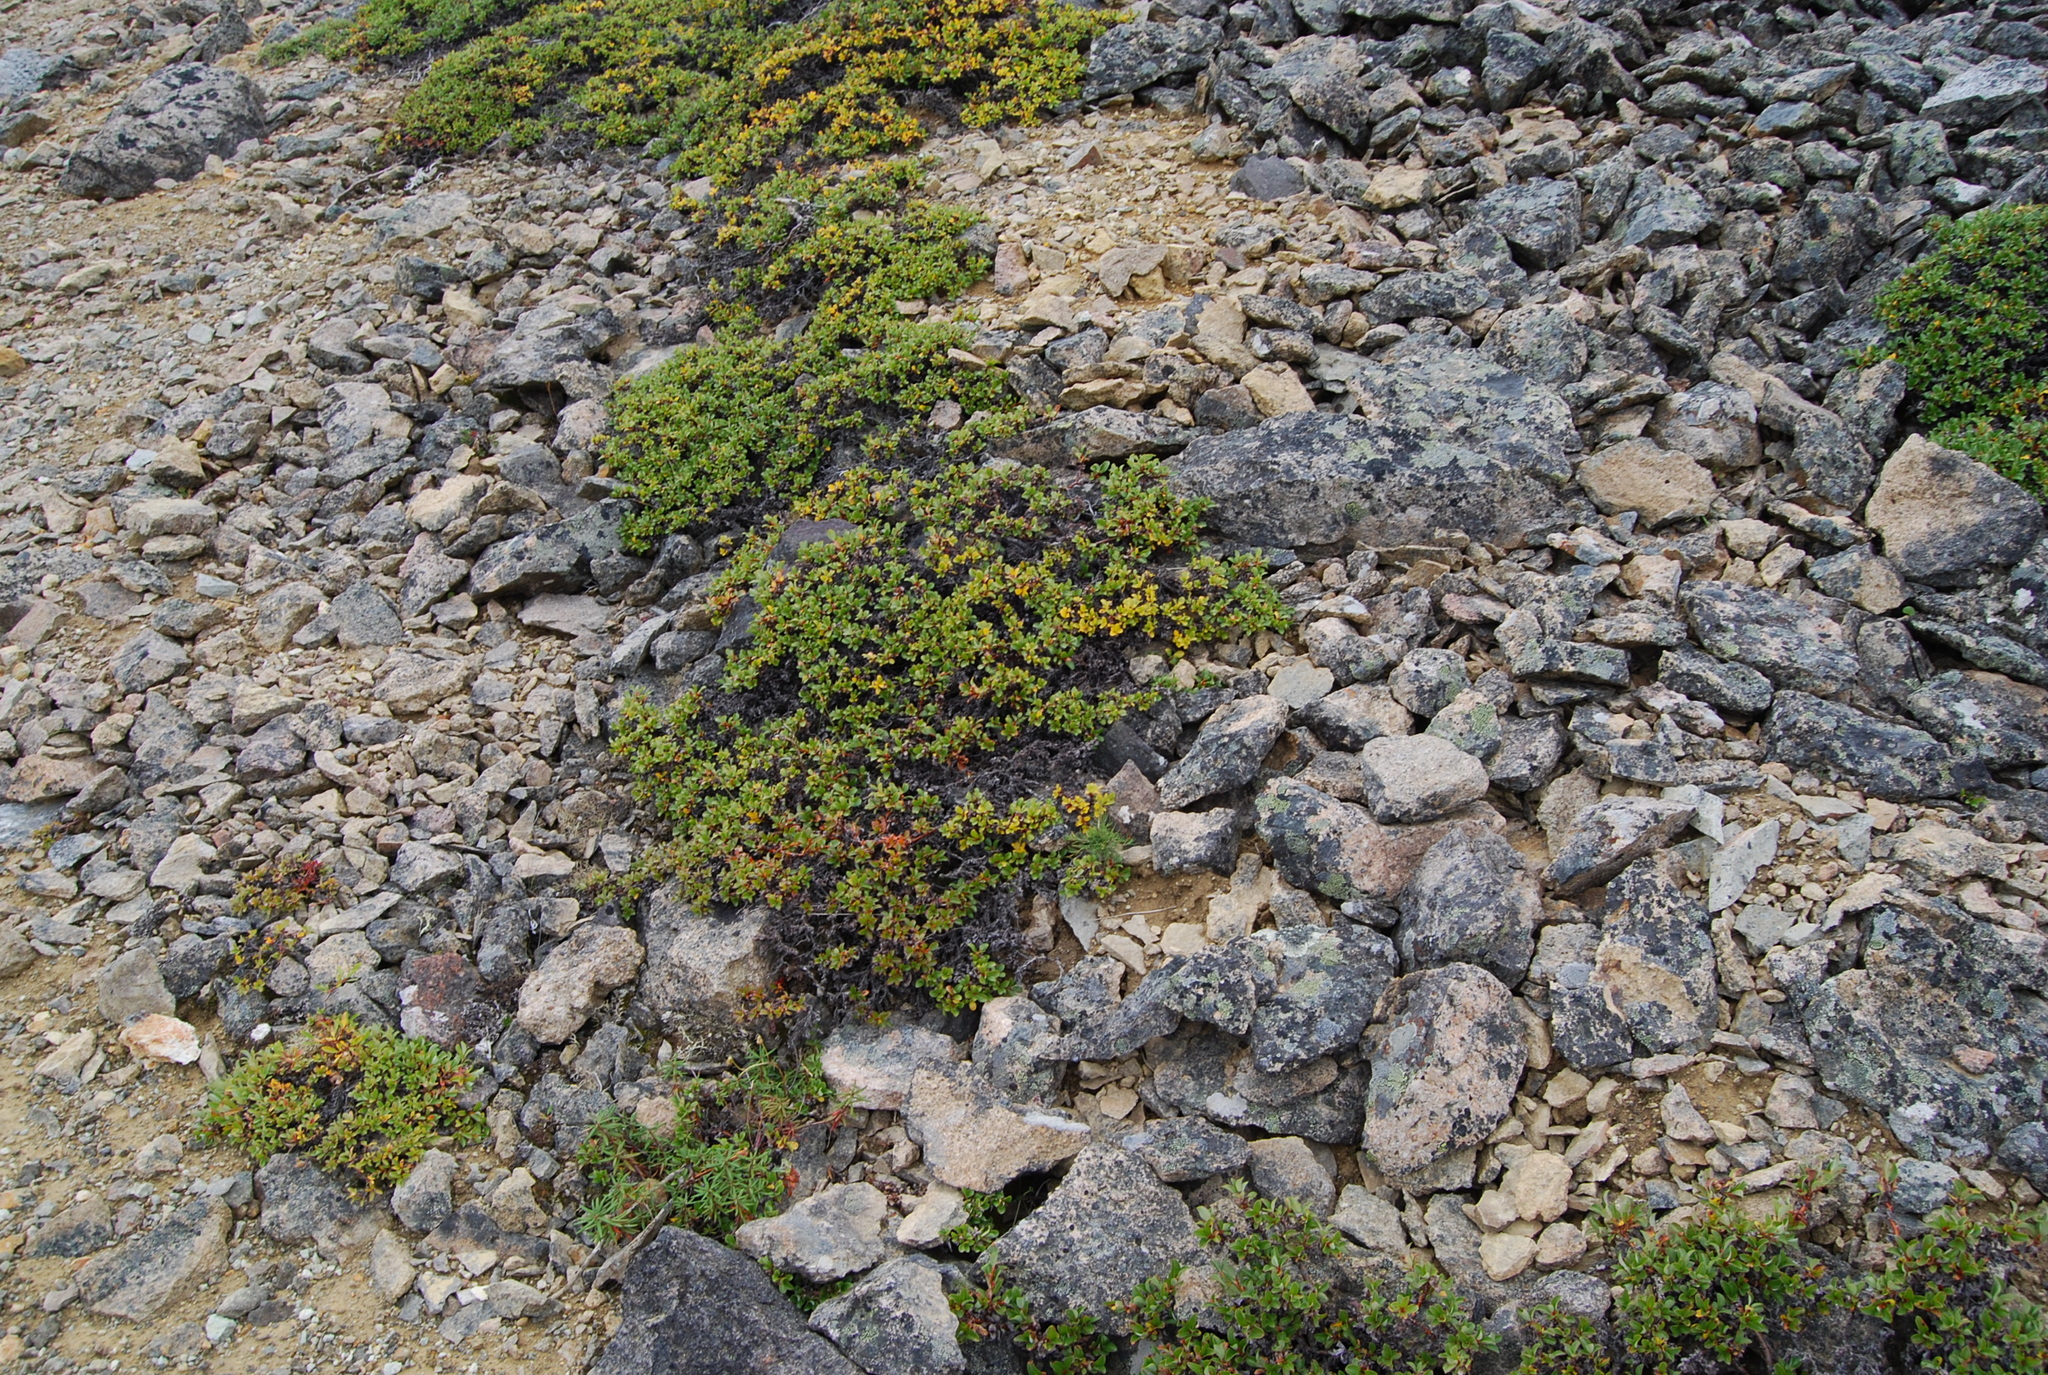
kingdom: Plantae
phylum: Tracheophyta
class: Magnoliopsida
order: Malpighiales
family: Salicaceae
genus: Salix
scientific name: Salix khokhriakovii
